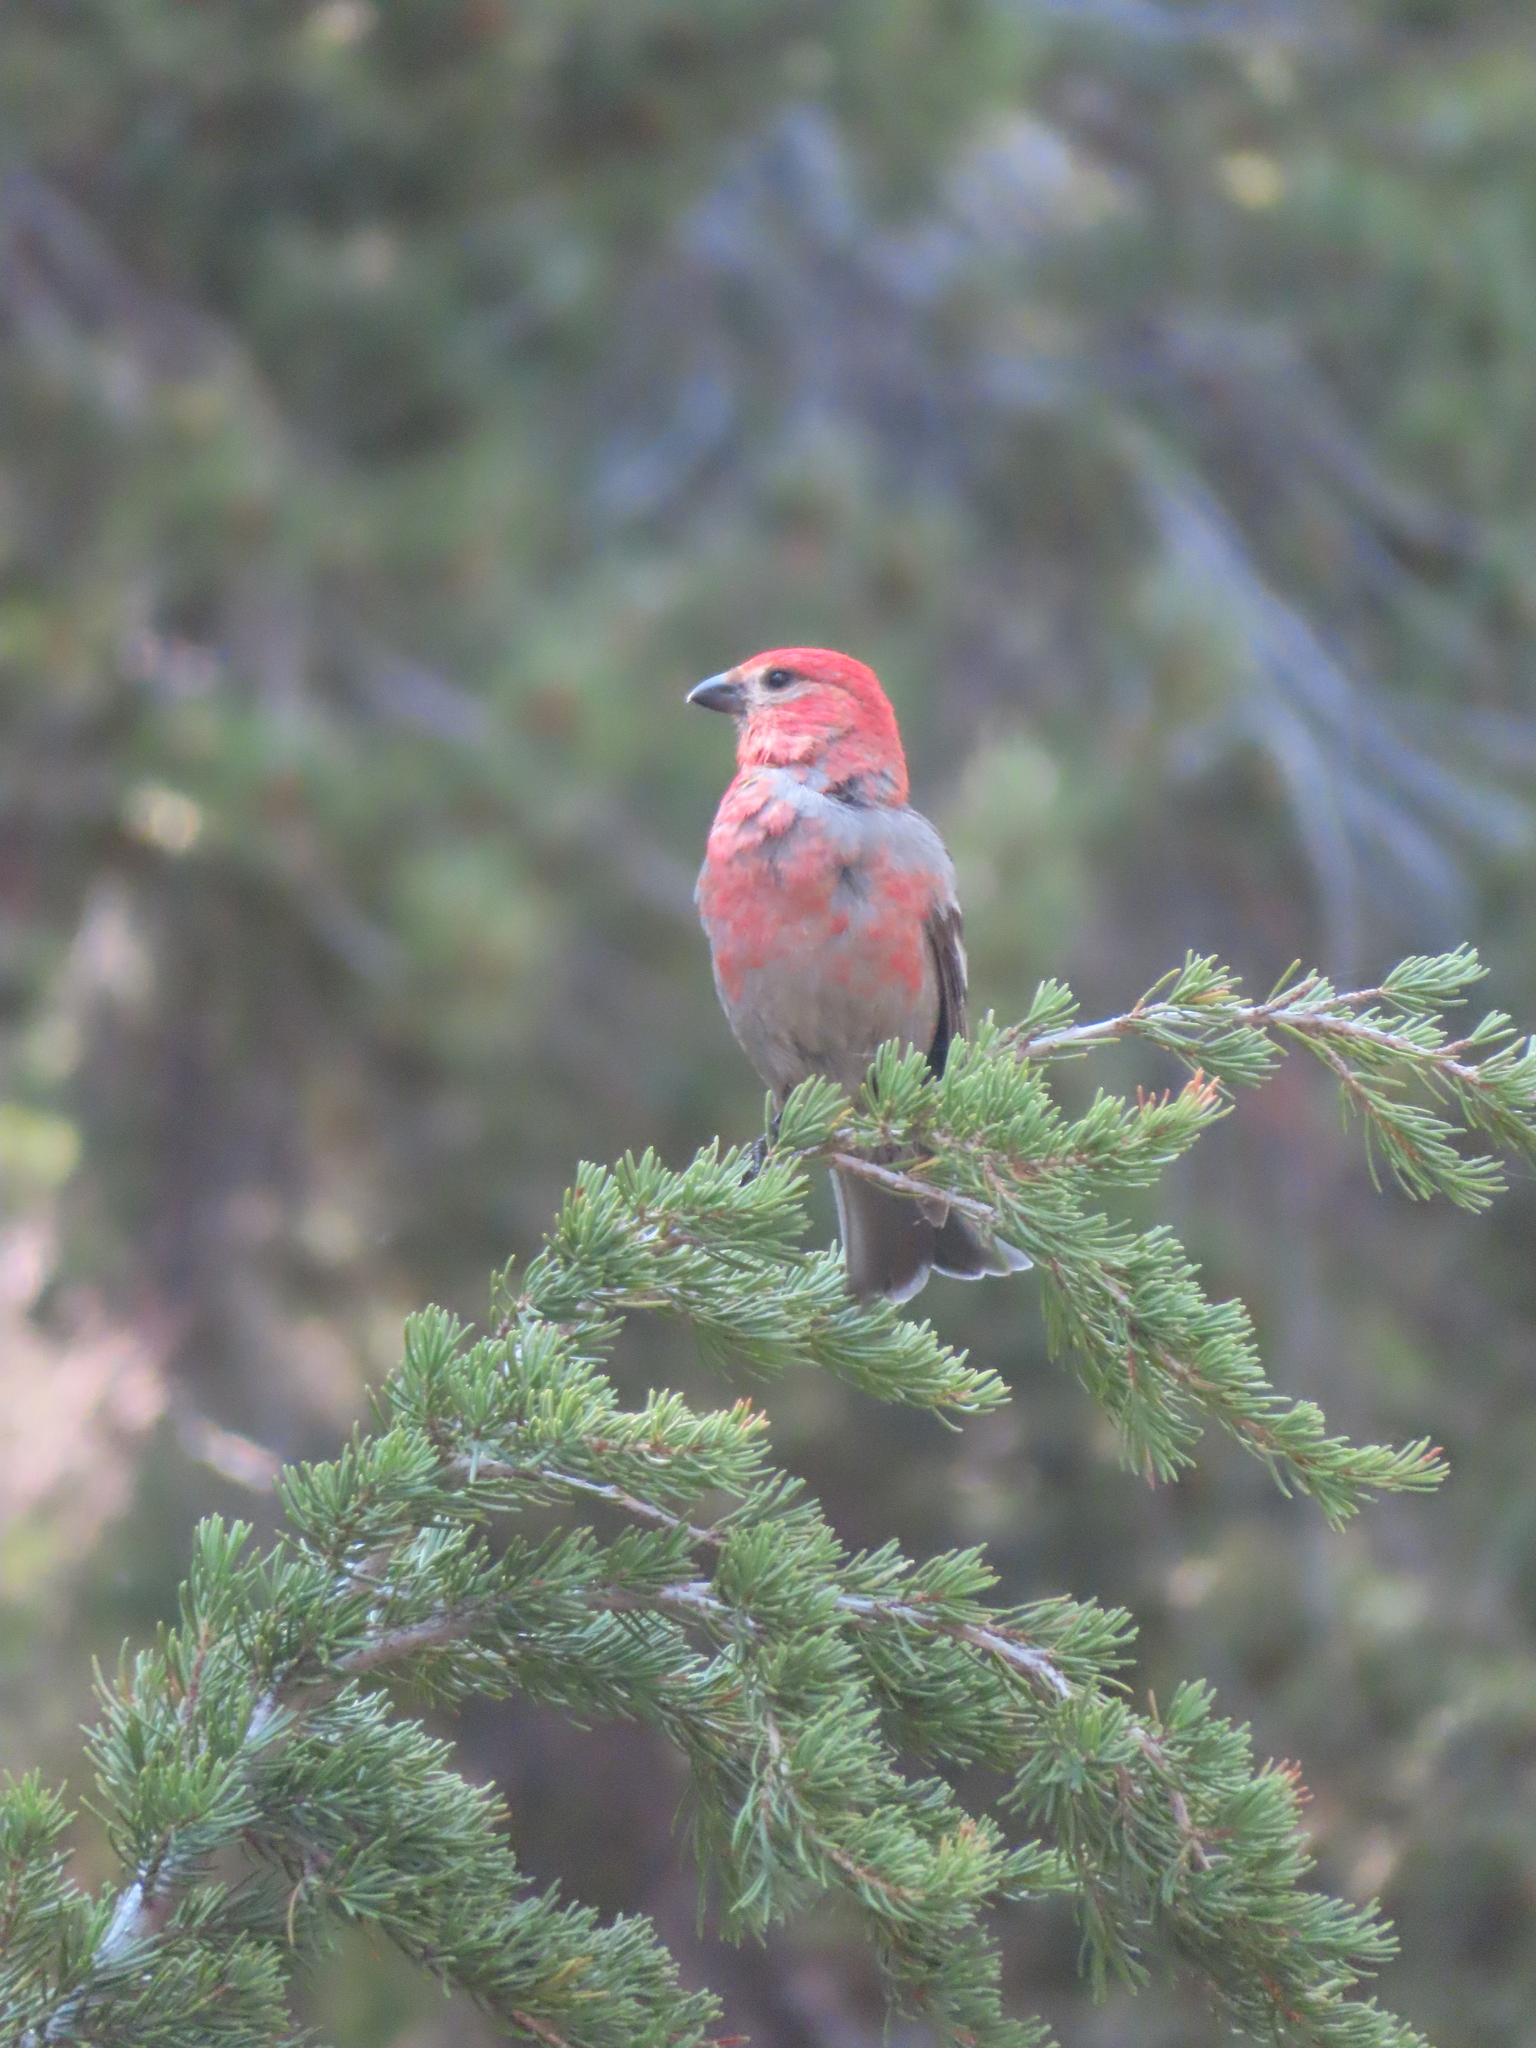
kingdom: Animalia
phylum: Chordata
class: Aves
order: Passeriformes
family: Fringillidae
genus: Pinicola
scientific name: Pinicola enucleator
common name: Pine grosbeak
